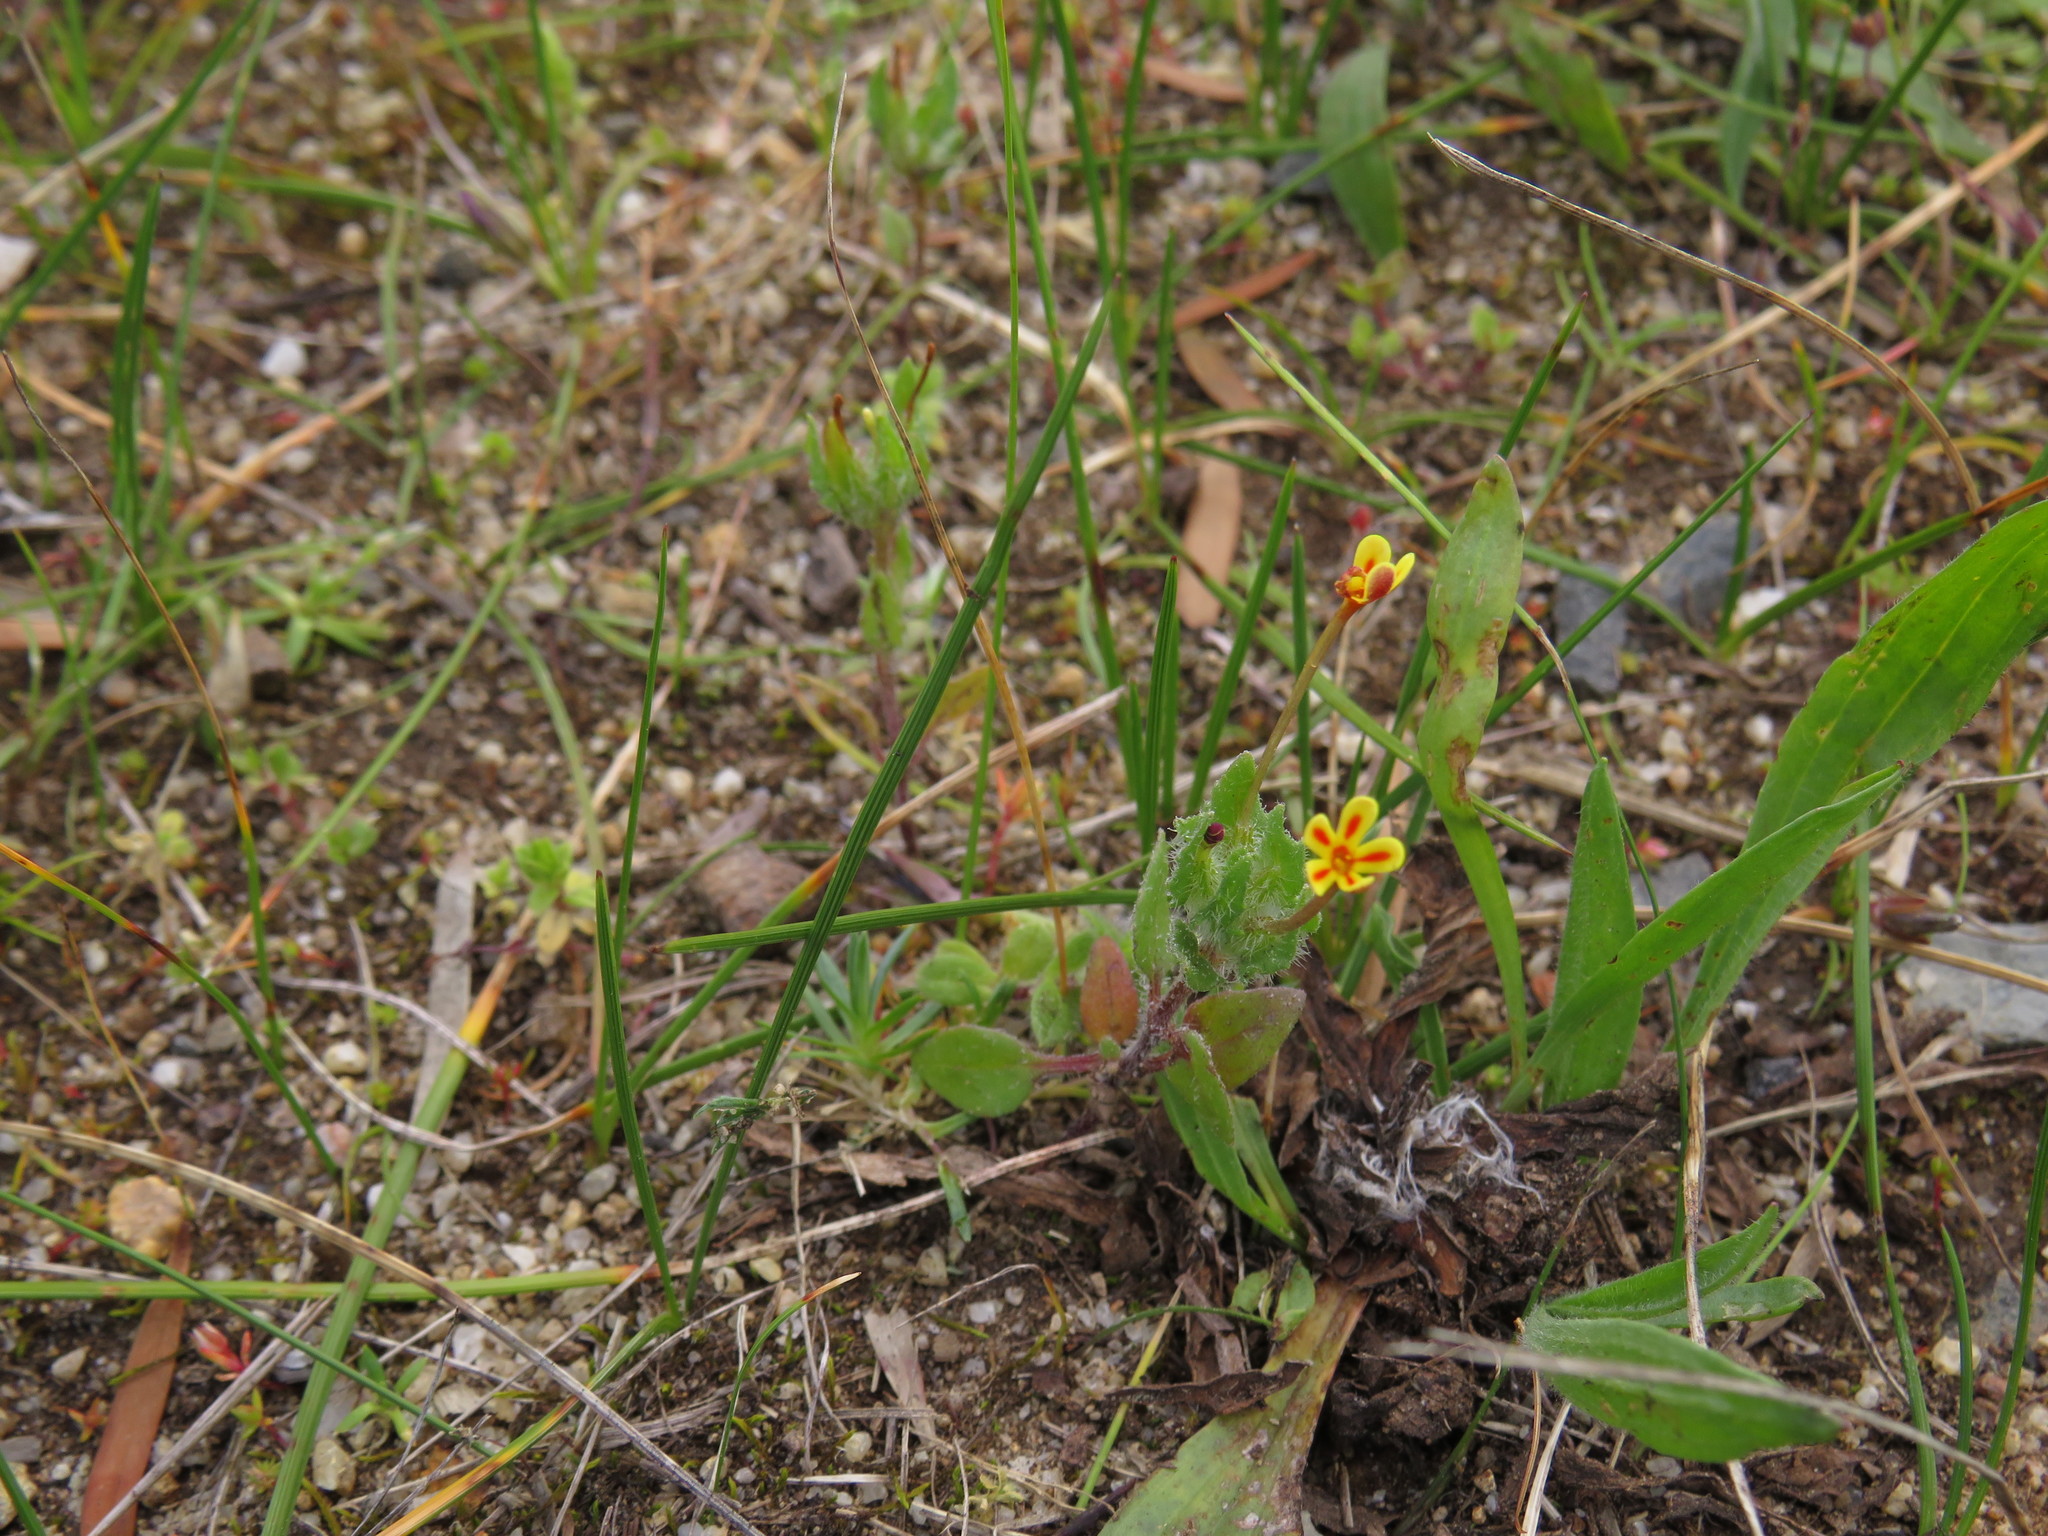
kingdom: Plantae
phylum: Tracheophyta
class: Magnoliopsida
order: Lamiales
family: Scrophulariaceae
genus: Zaluzianskya
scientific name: Zaluzianskya divaricata
